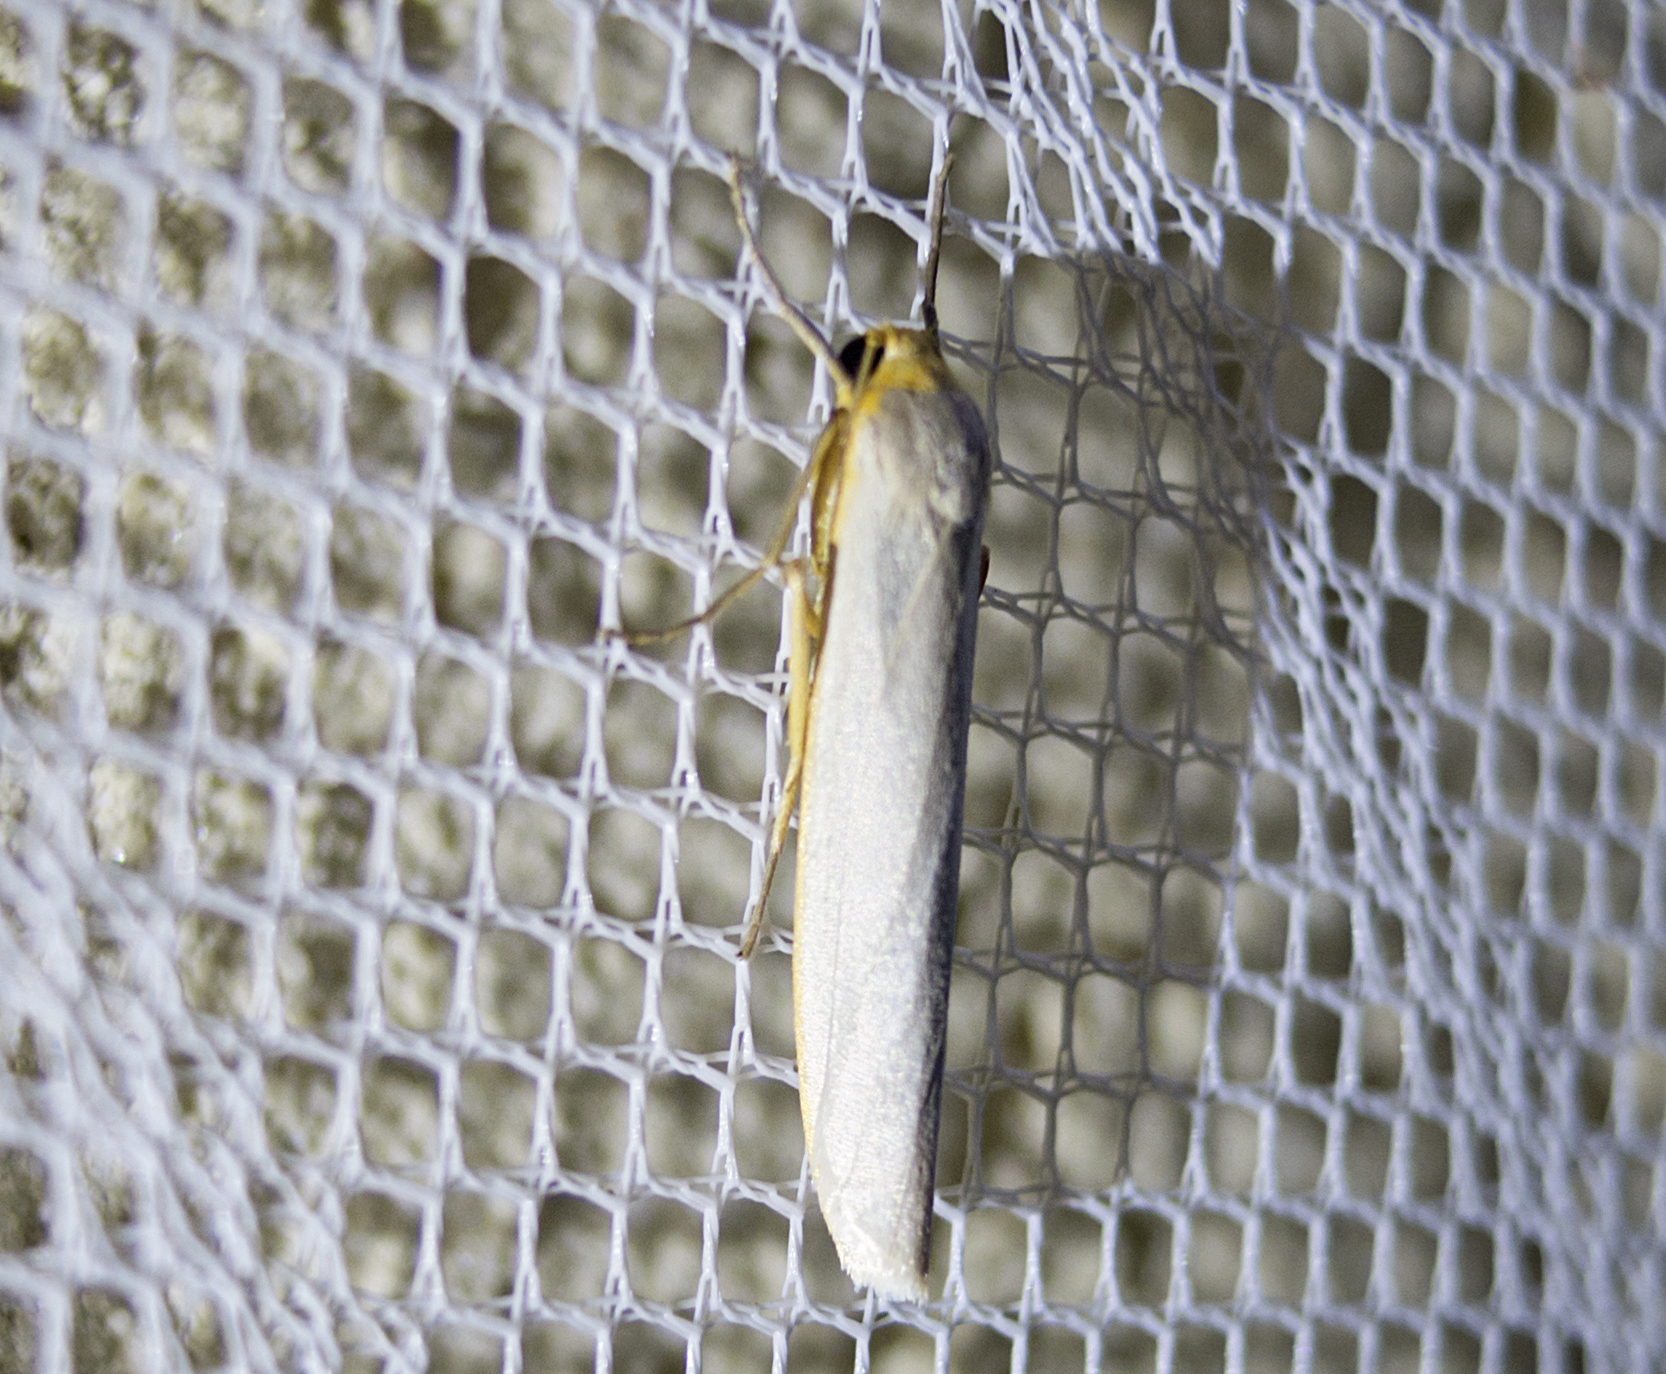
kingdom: Animalia
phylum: Arthropoda
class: Insecta
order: Lepidoptera
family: Erebidae
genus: Eilema
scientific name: Eilema caniola
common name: Hoary footman
